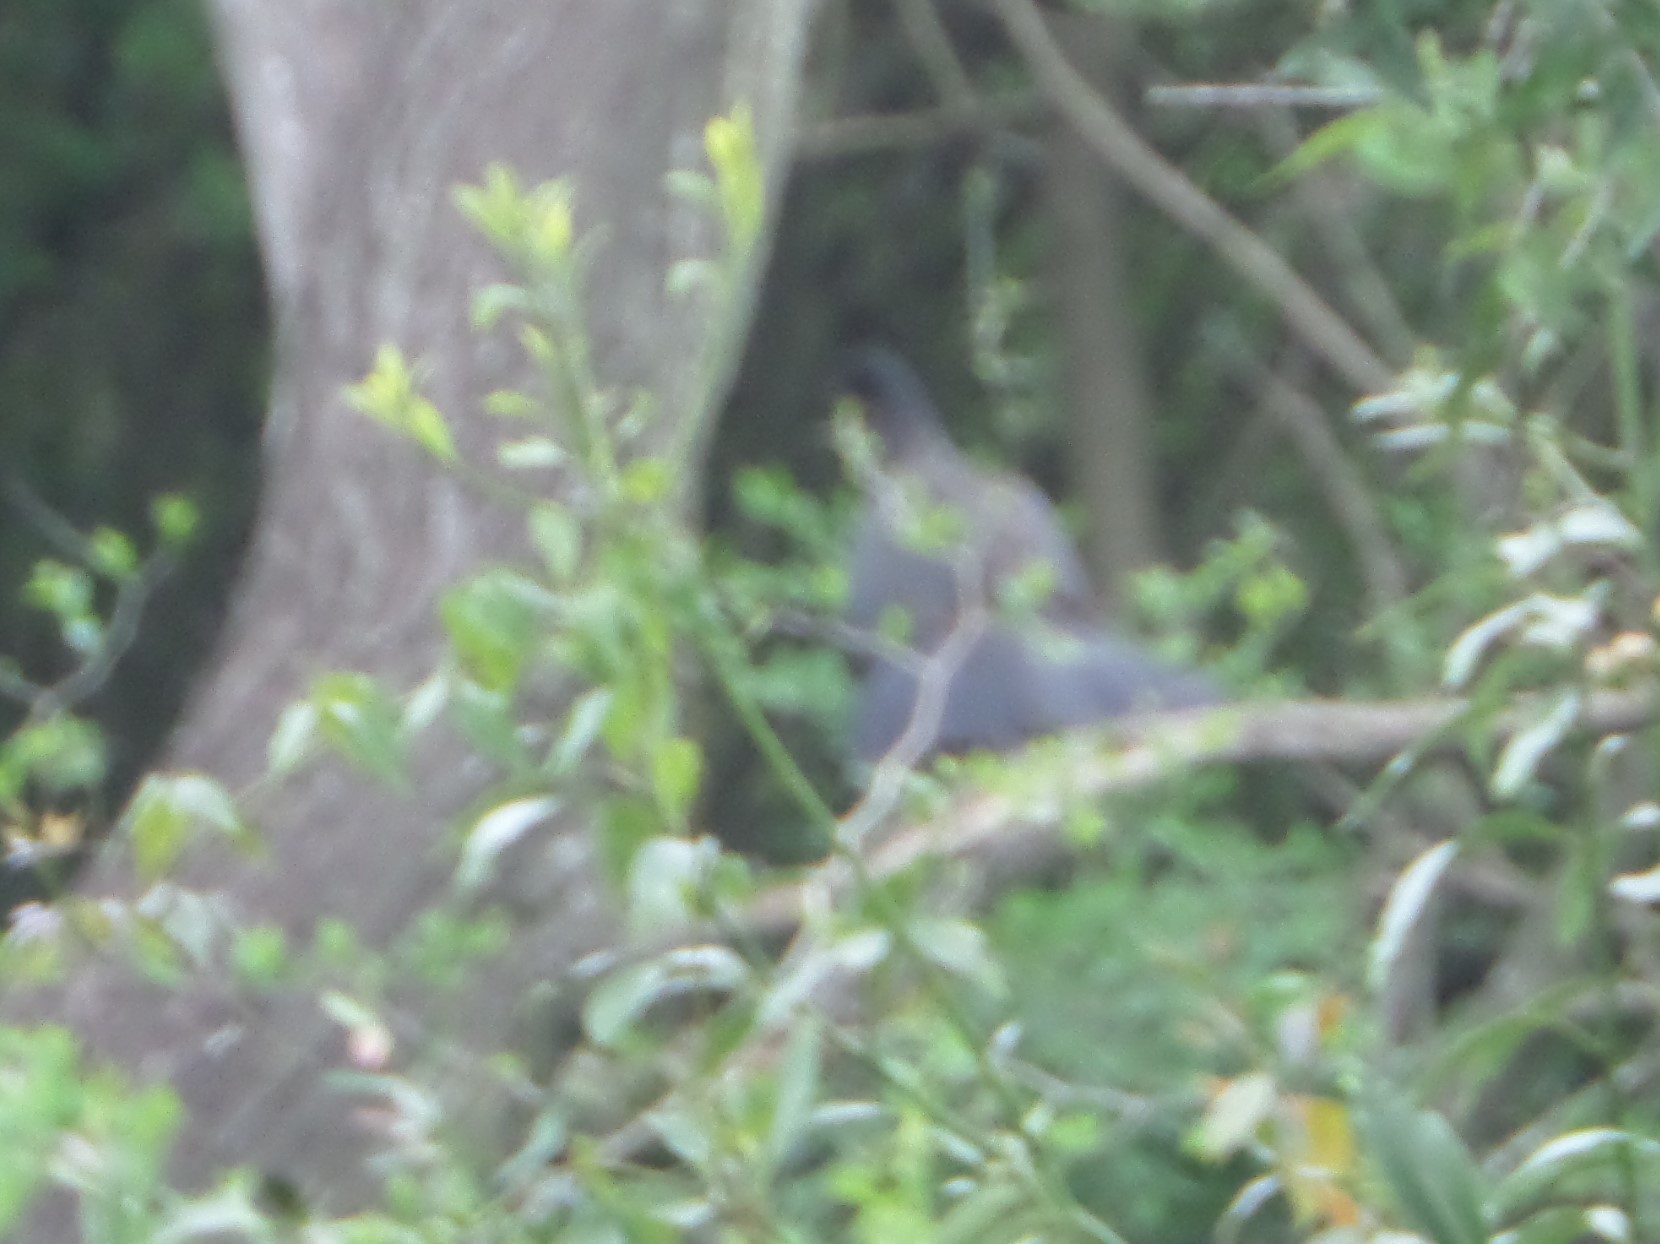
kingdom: Animalia
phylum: Chordata
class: Aves
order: Galliformes
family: Cracidae
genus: Penelope
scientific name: Penelope obscura
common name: Dusky-legged guan
